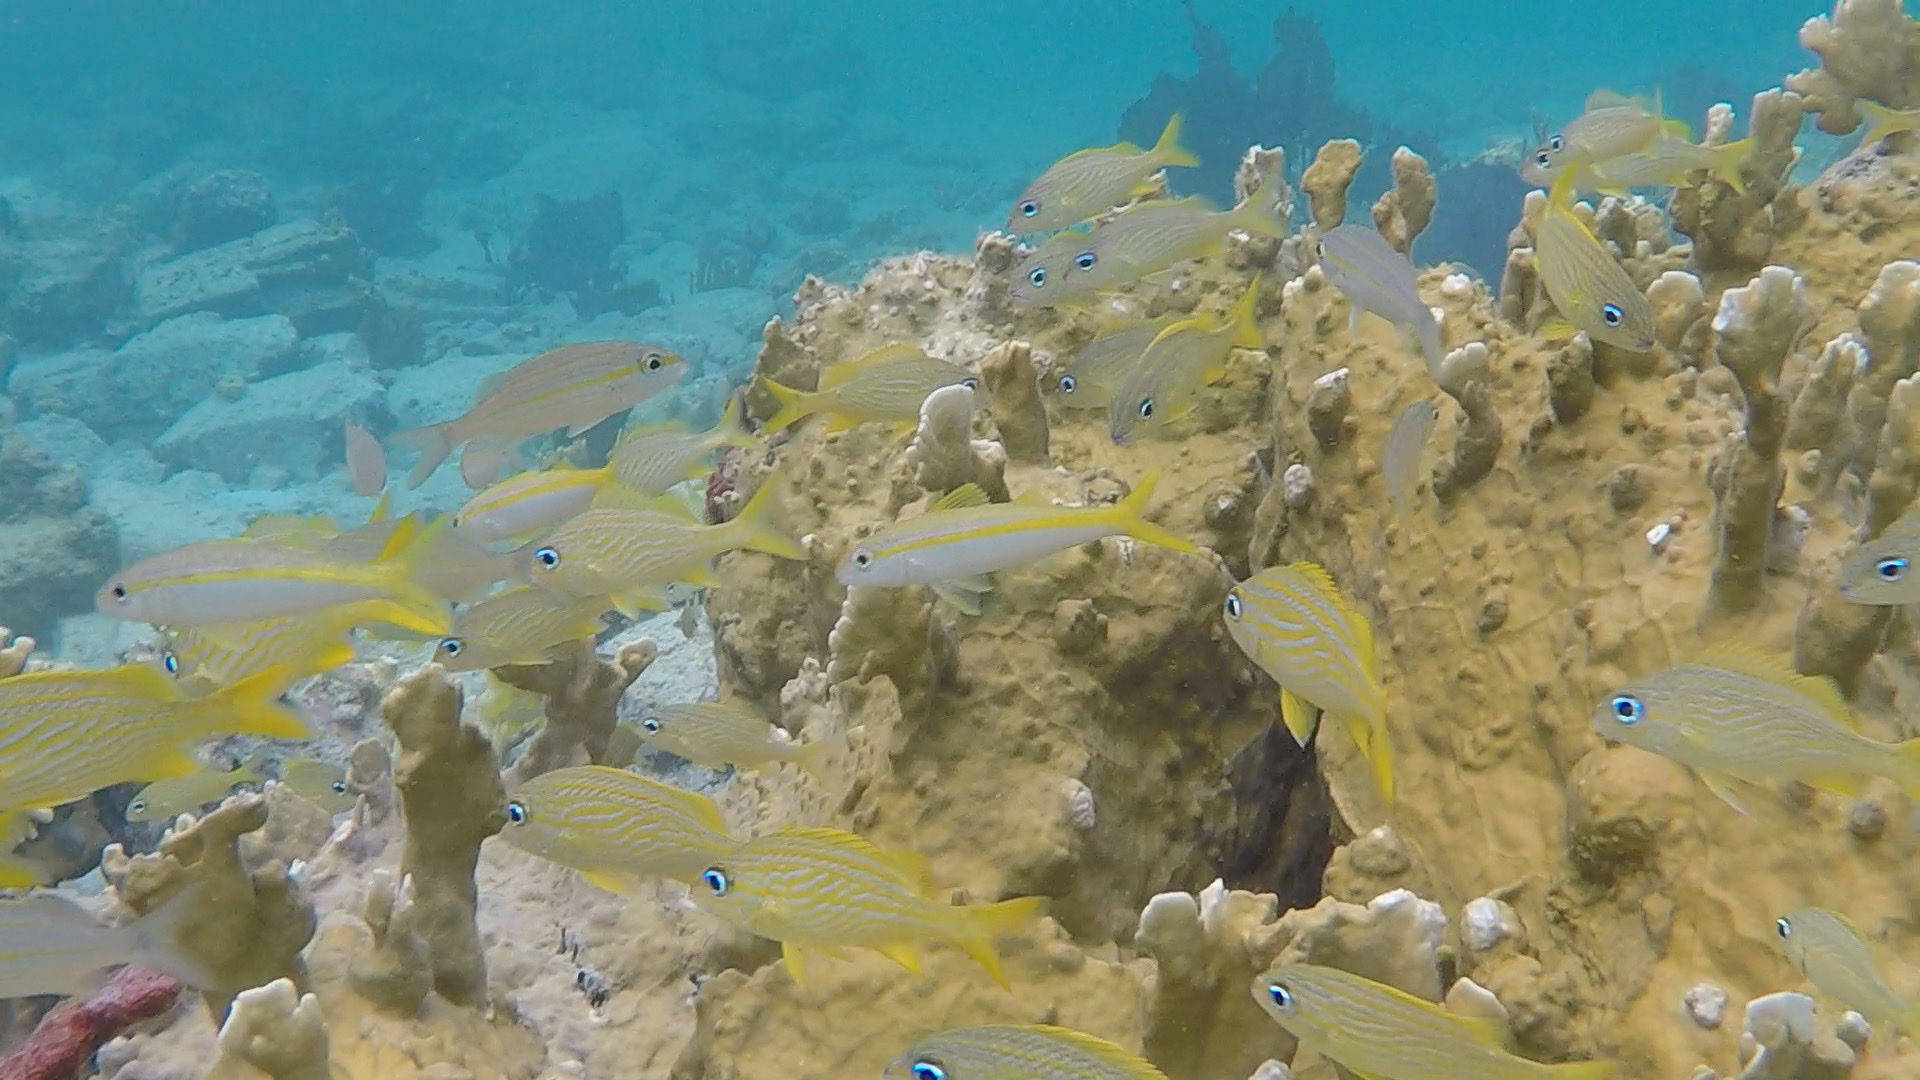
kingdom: Animalia
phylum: Chordata
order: Perciformes
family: Haemulidae
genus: Haemulon
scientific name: Haemulon flavolineatum
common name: French grunt
